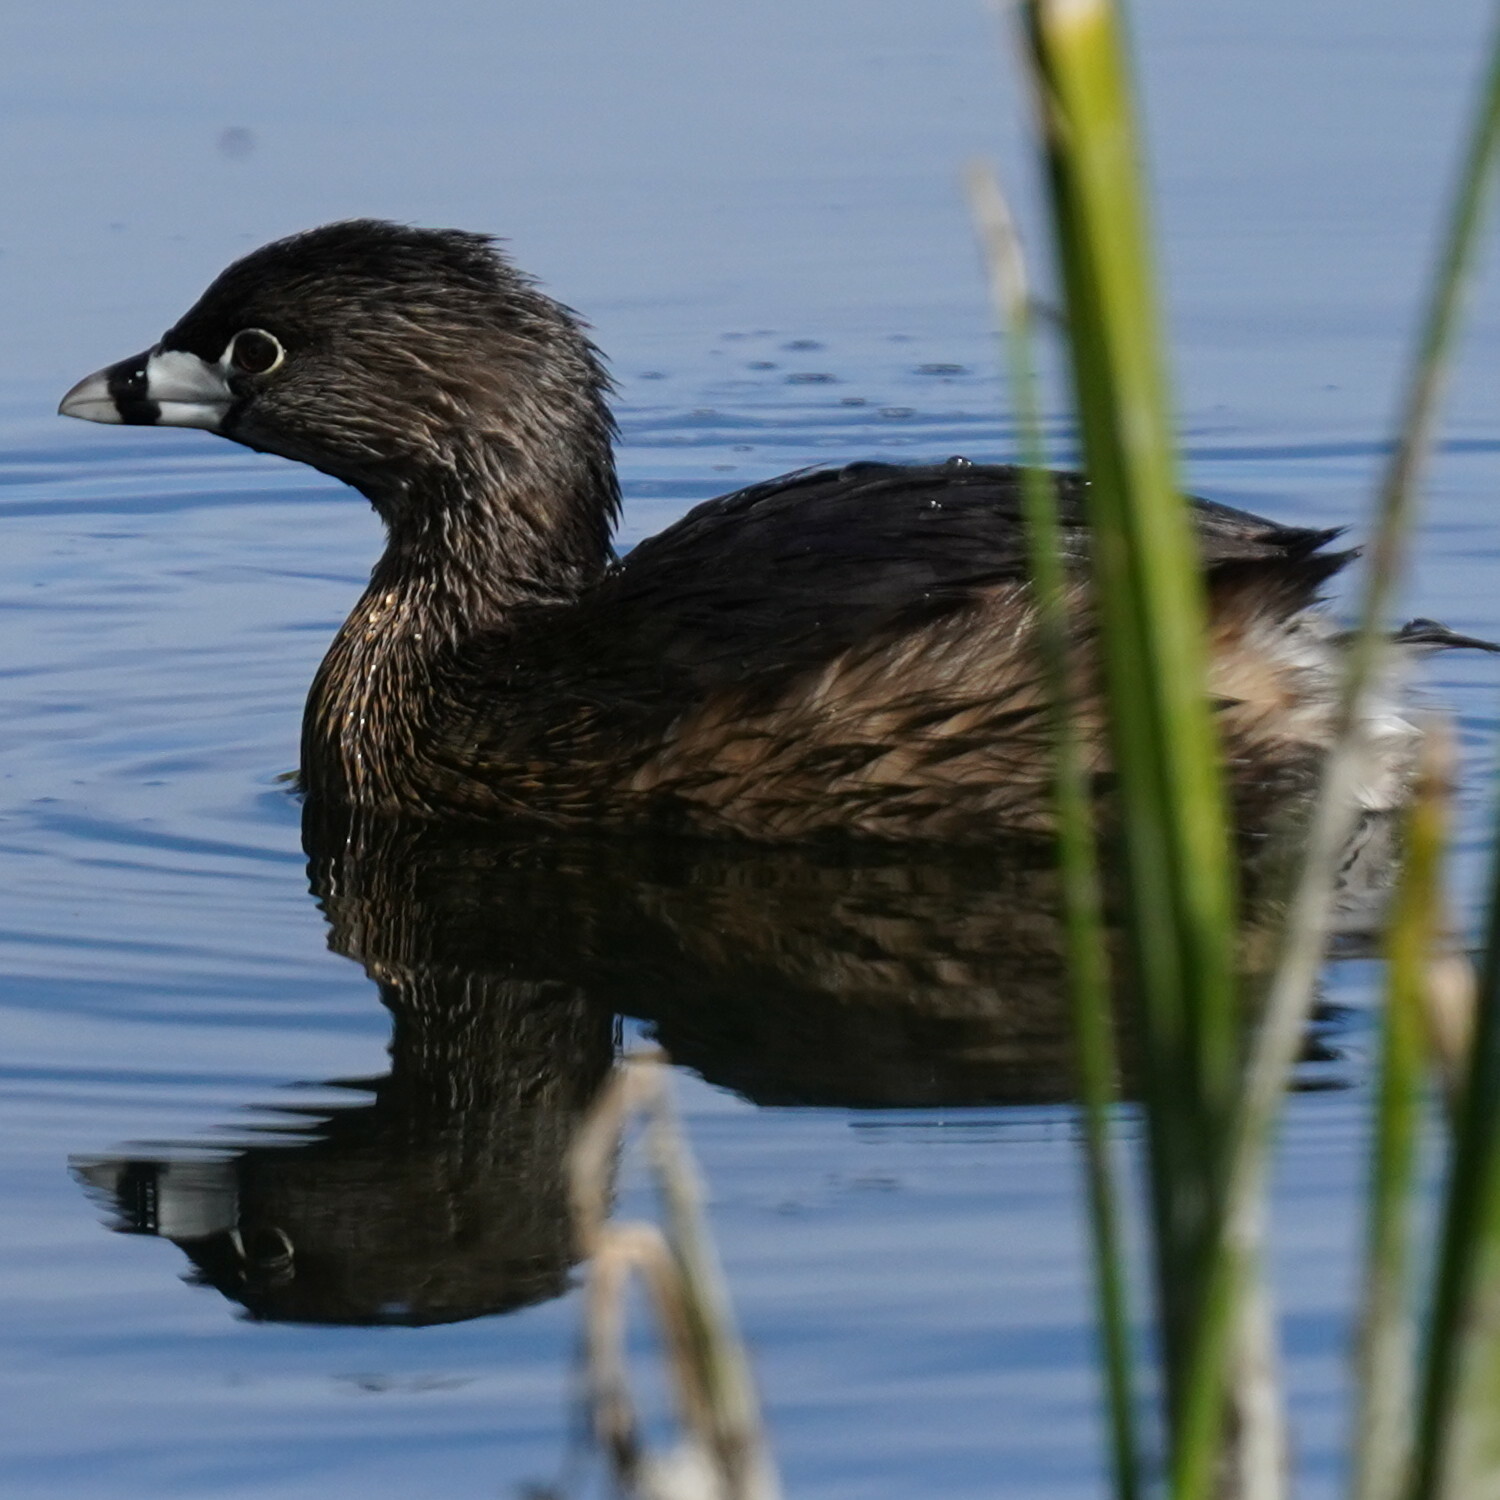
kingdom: Animalia
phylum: Chordata
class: Aves
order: Podicipediformes
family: Podicipedidae
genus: Podilymbus
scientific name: Podilymbus podiceps
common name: Pied-billed grebe
